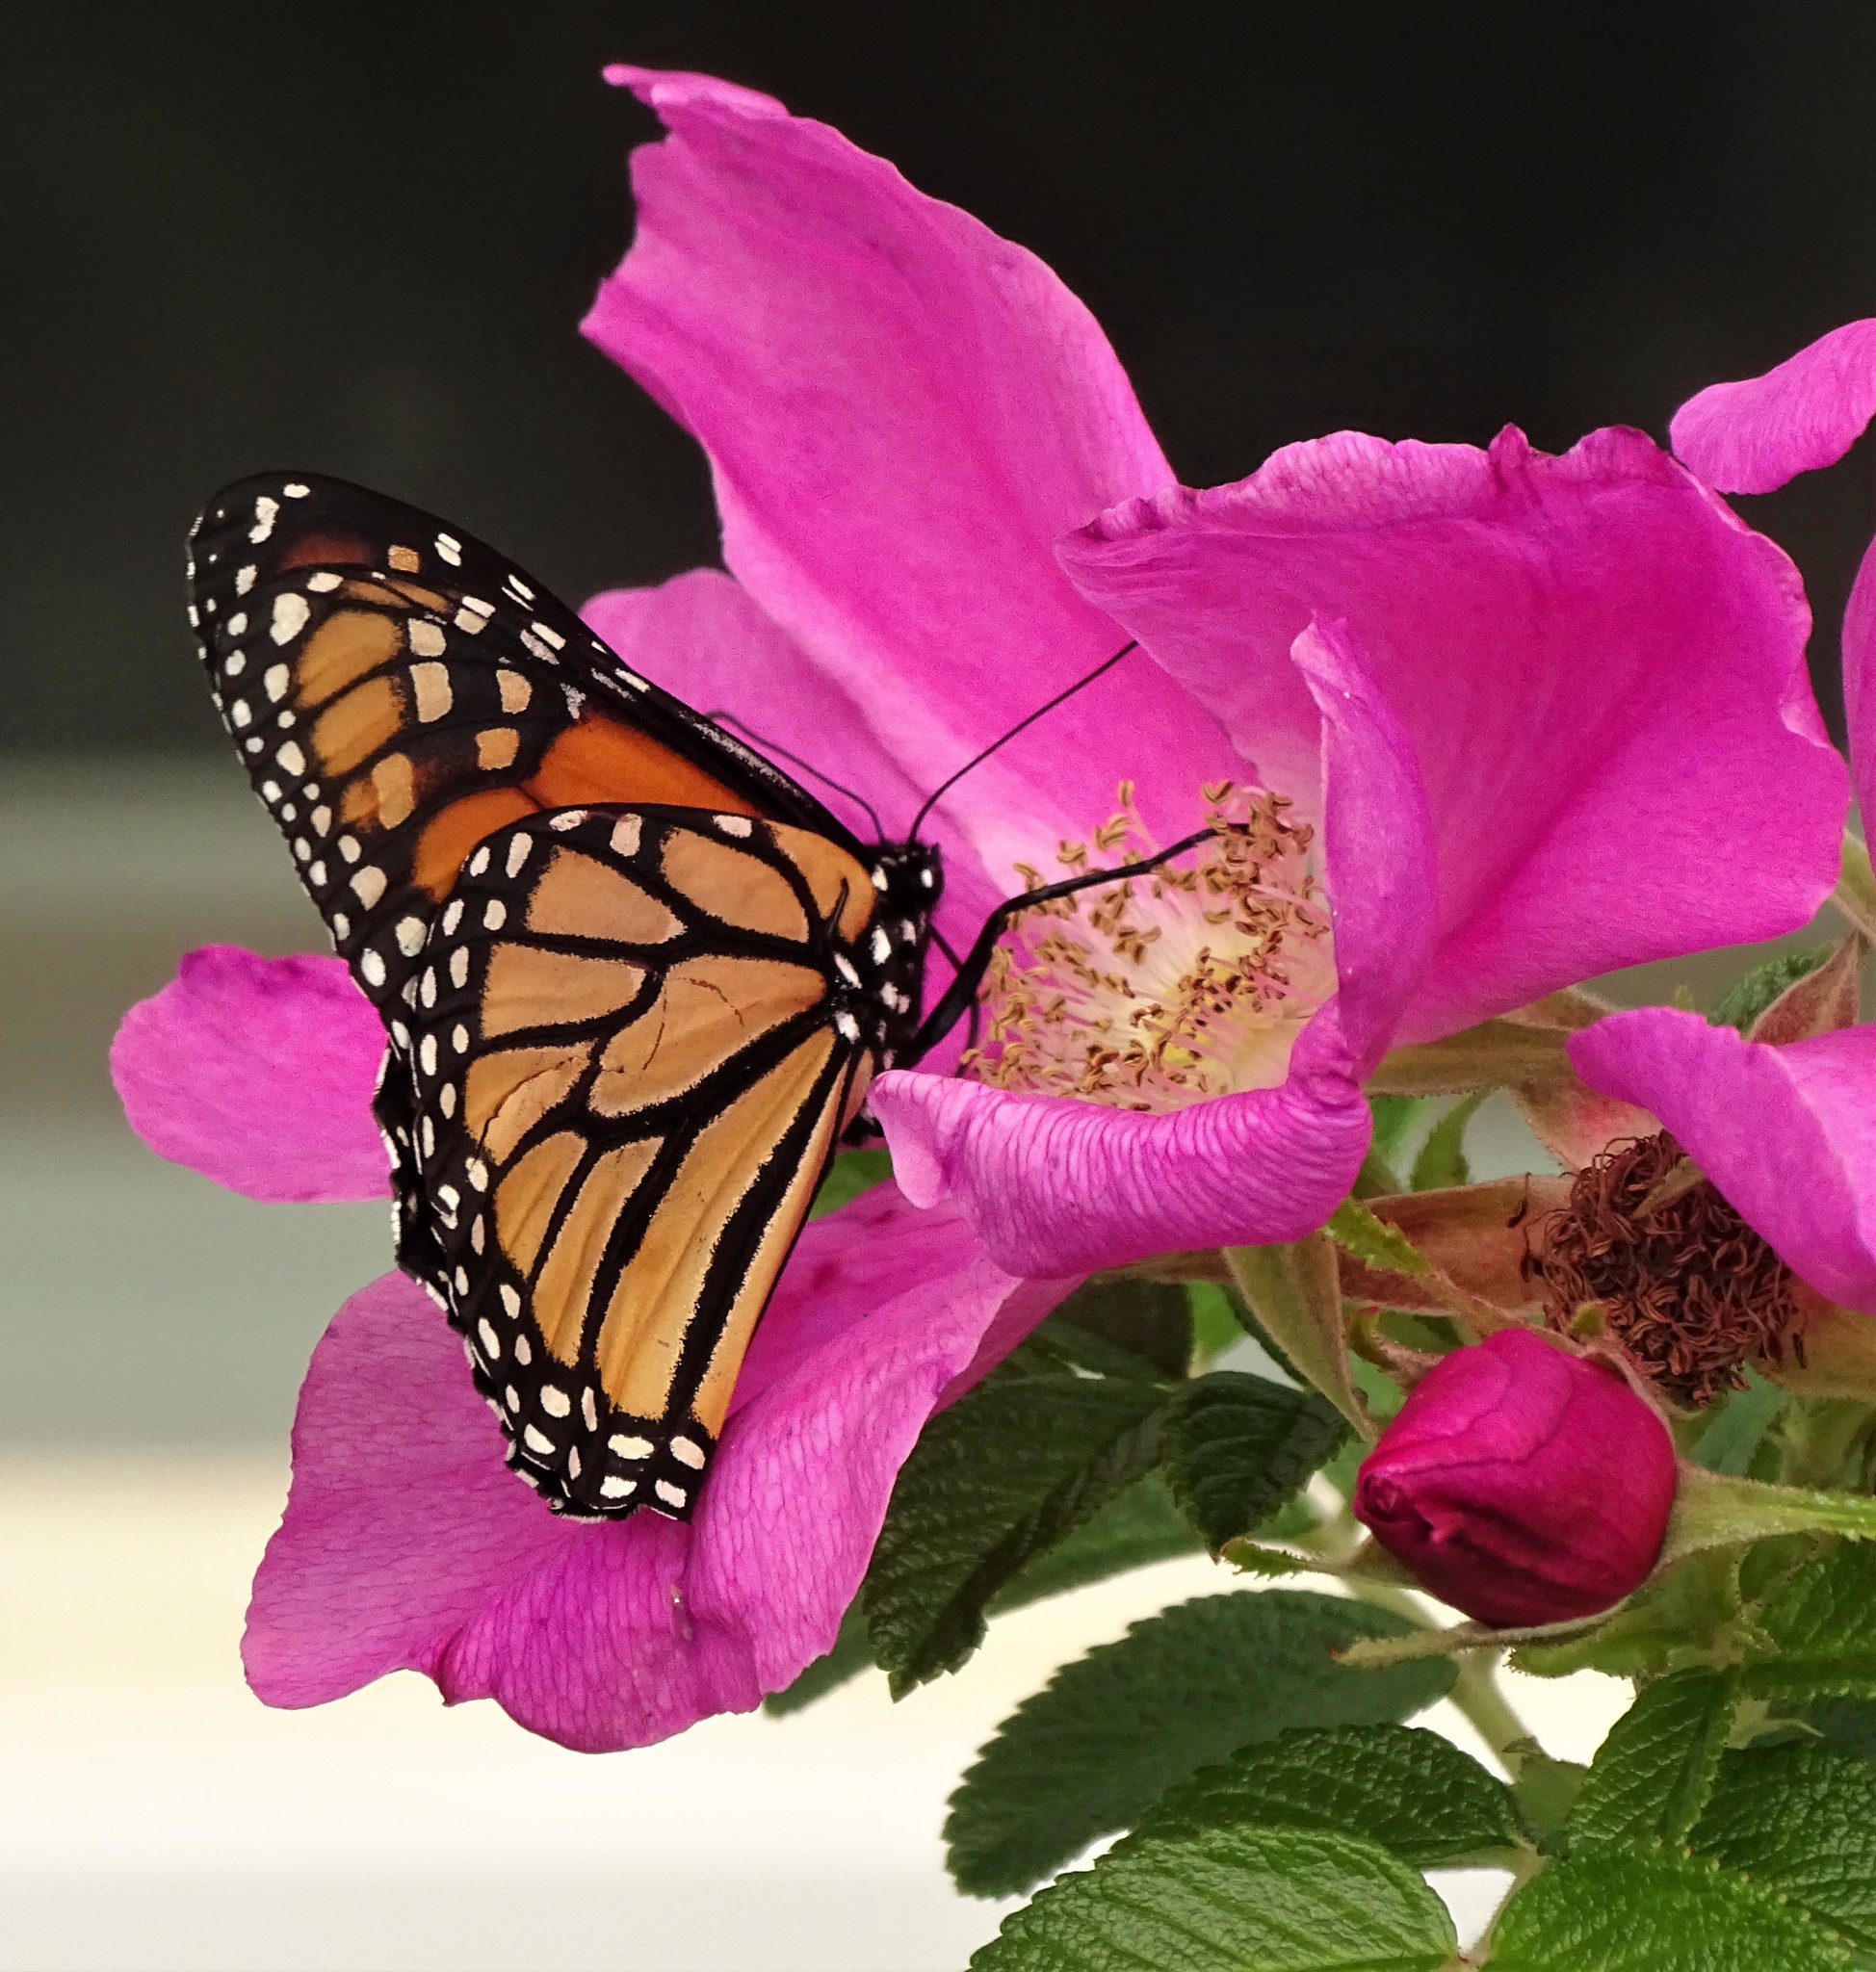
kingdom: Animalia
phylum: Arthropoda
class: Insecta
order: Lepidoptera
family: Nymphalidae
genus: Danaus
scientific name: Danaus plexippus
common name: Monarch
